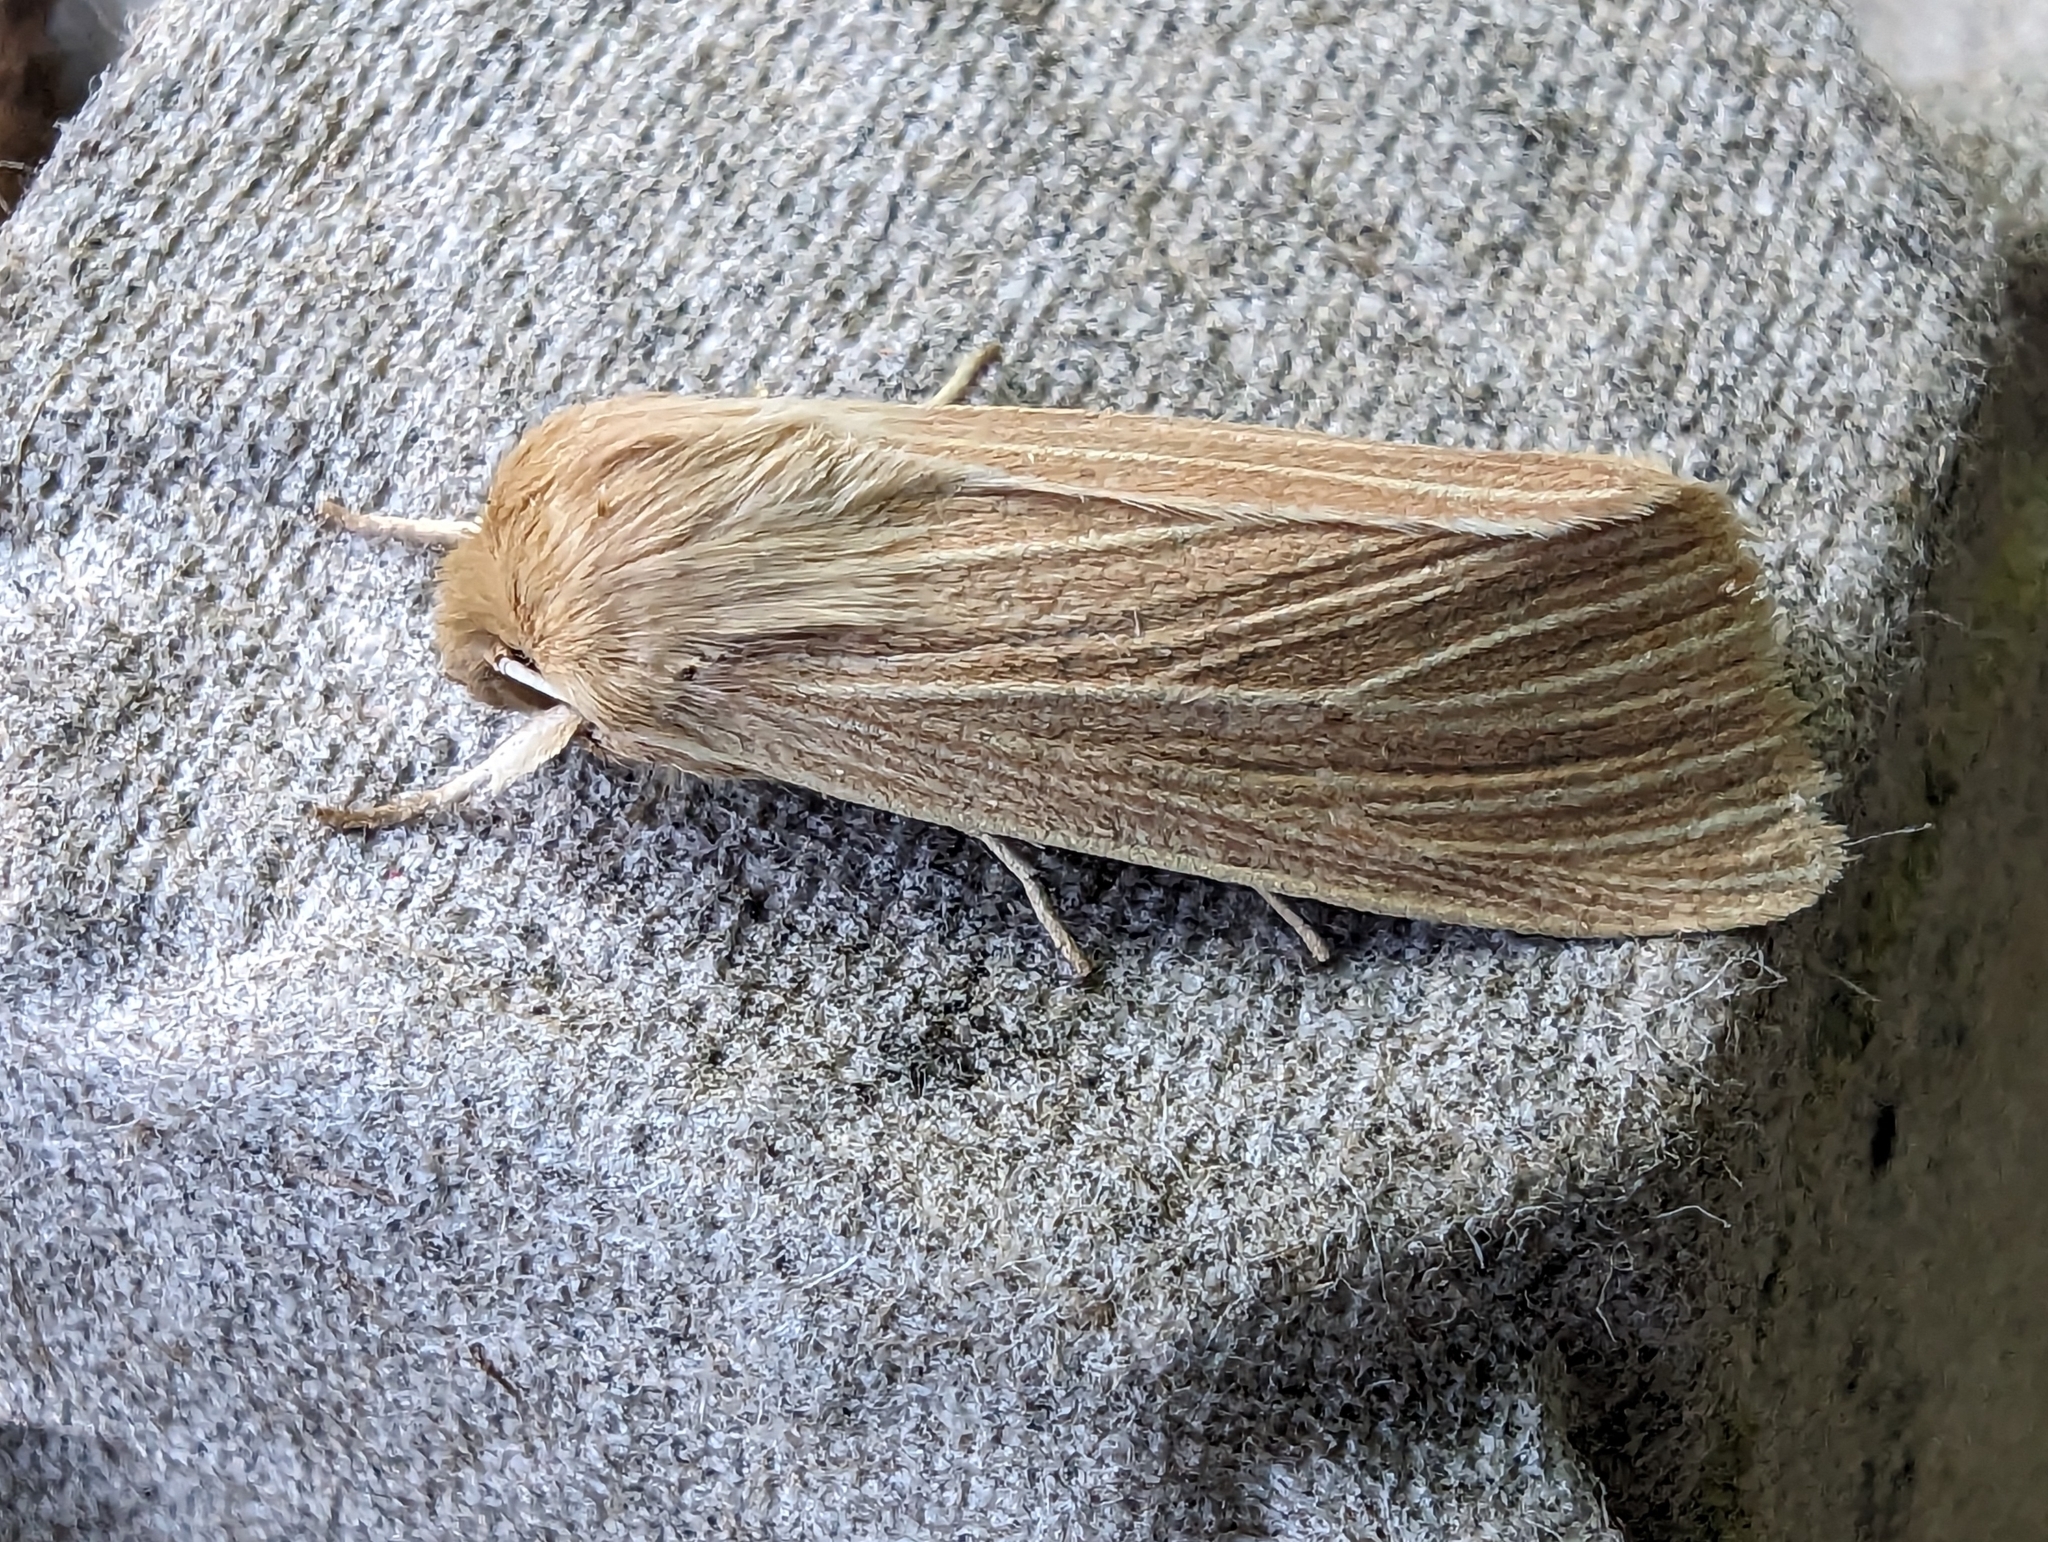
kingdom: Animalia
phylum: Arthropoda
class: Insecta
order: Lepidoptera
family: Noctuidae
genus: Mythimna
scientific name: Mythimna pallens
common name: Common wainscot
